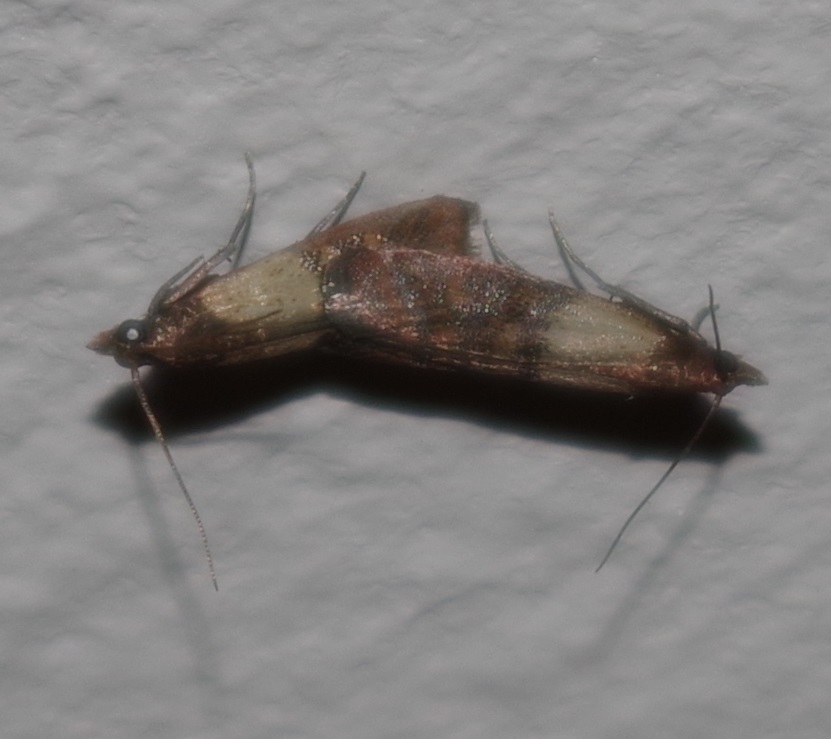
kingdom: Animalia
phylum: Arthropoda
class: Insecta
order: Lepidoptera
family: Pyralidae
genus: Plodia
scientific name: Plodia interpunctella
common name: Indian meal moth
